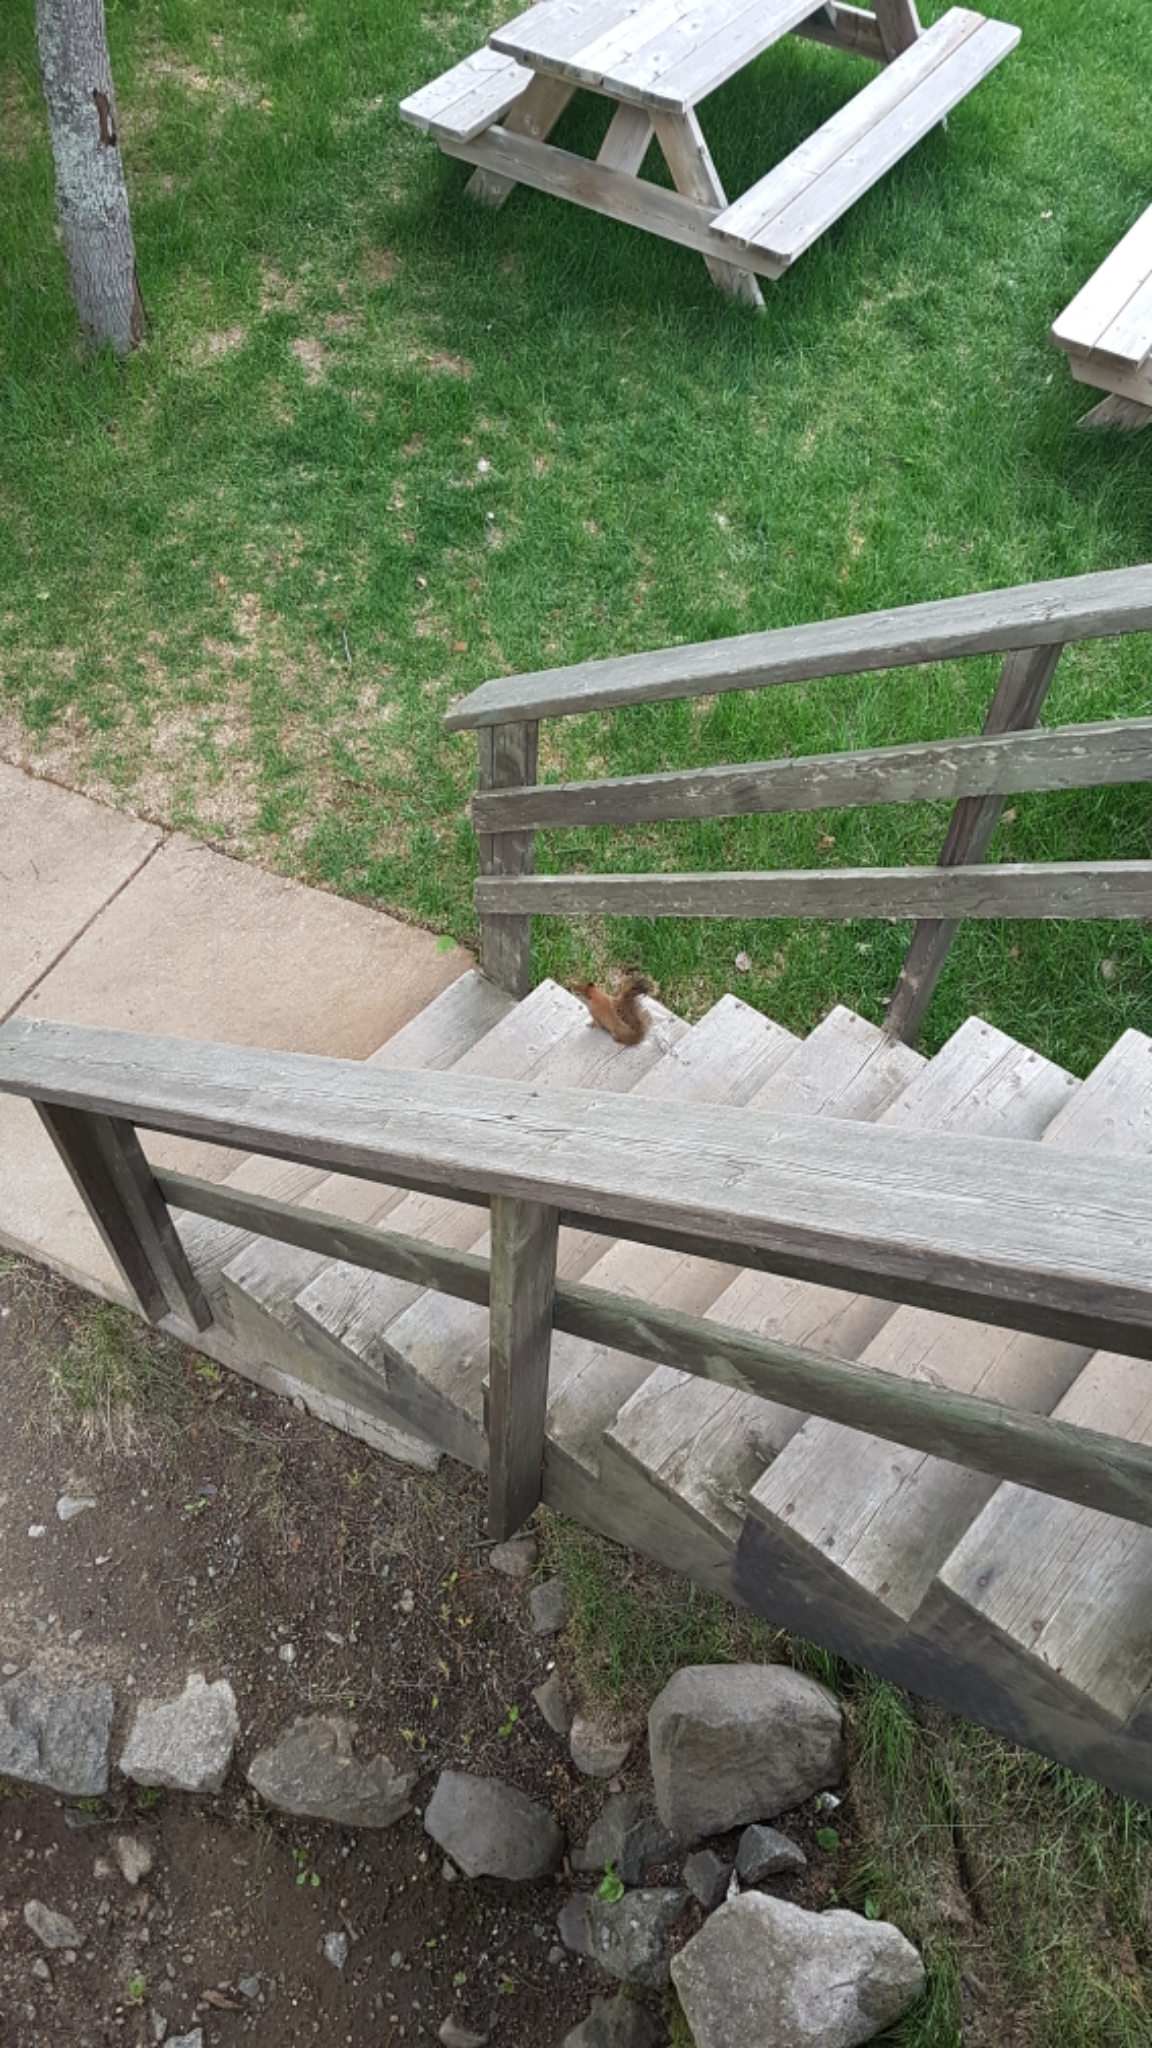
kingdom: Animalia
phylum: Chordata
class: Mammalia
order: Rodentia
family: Sciuridae
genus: Tamiasciurus
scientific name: Tamiasciurus hudsonicus
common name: Red squirrel
